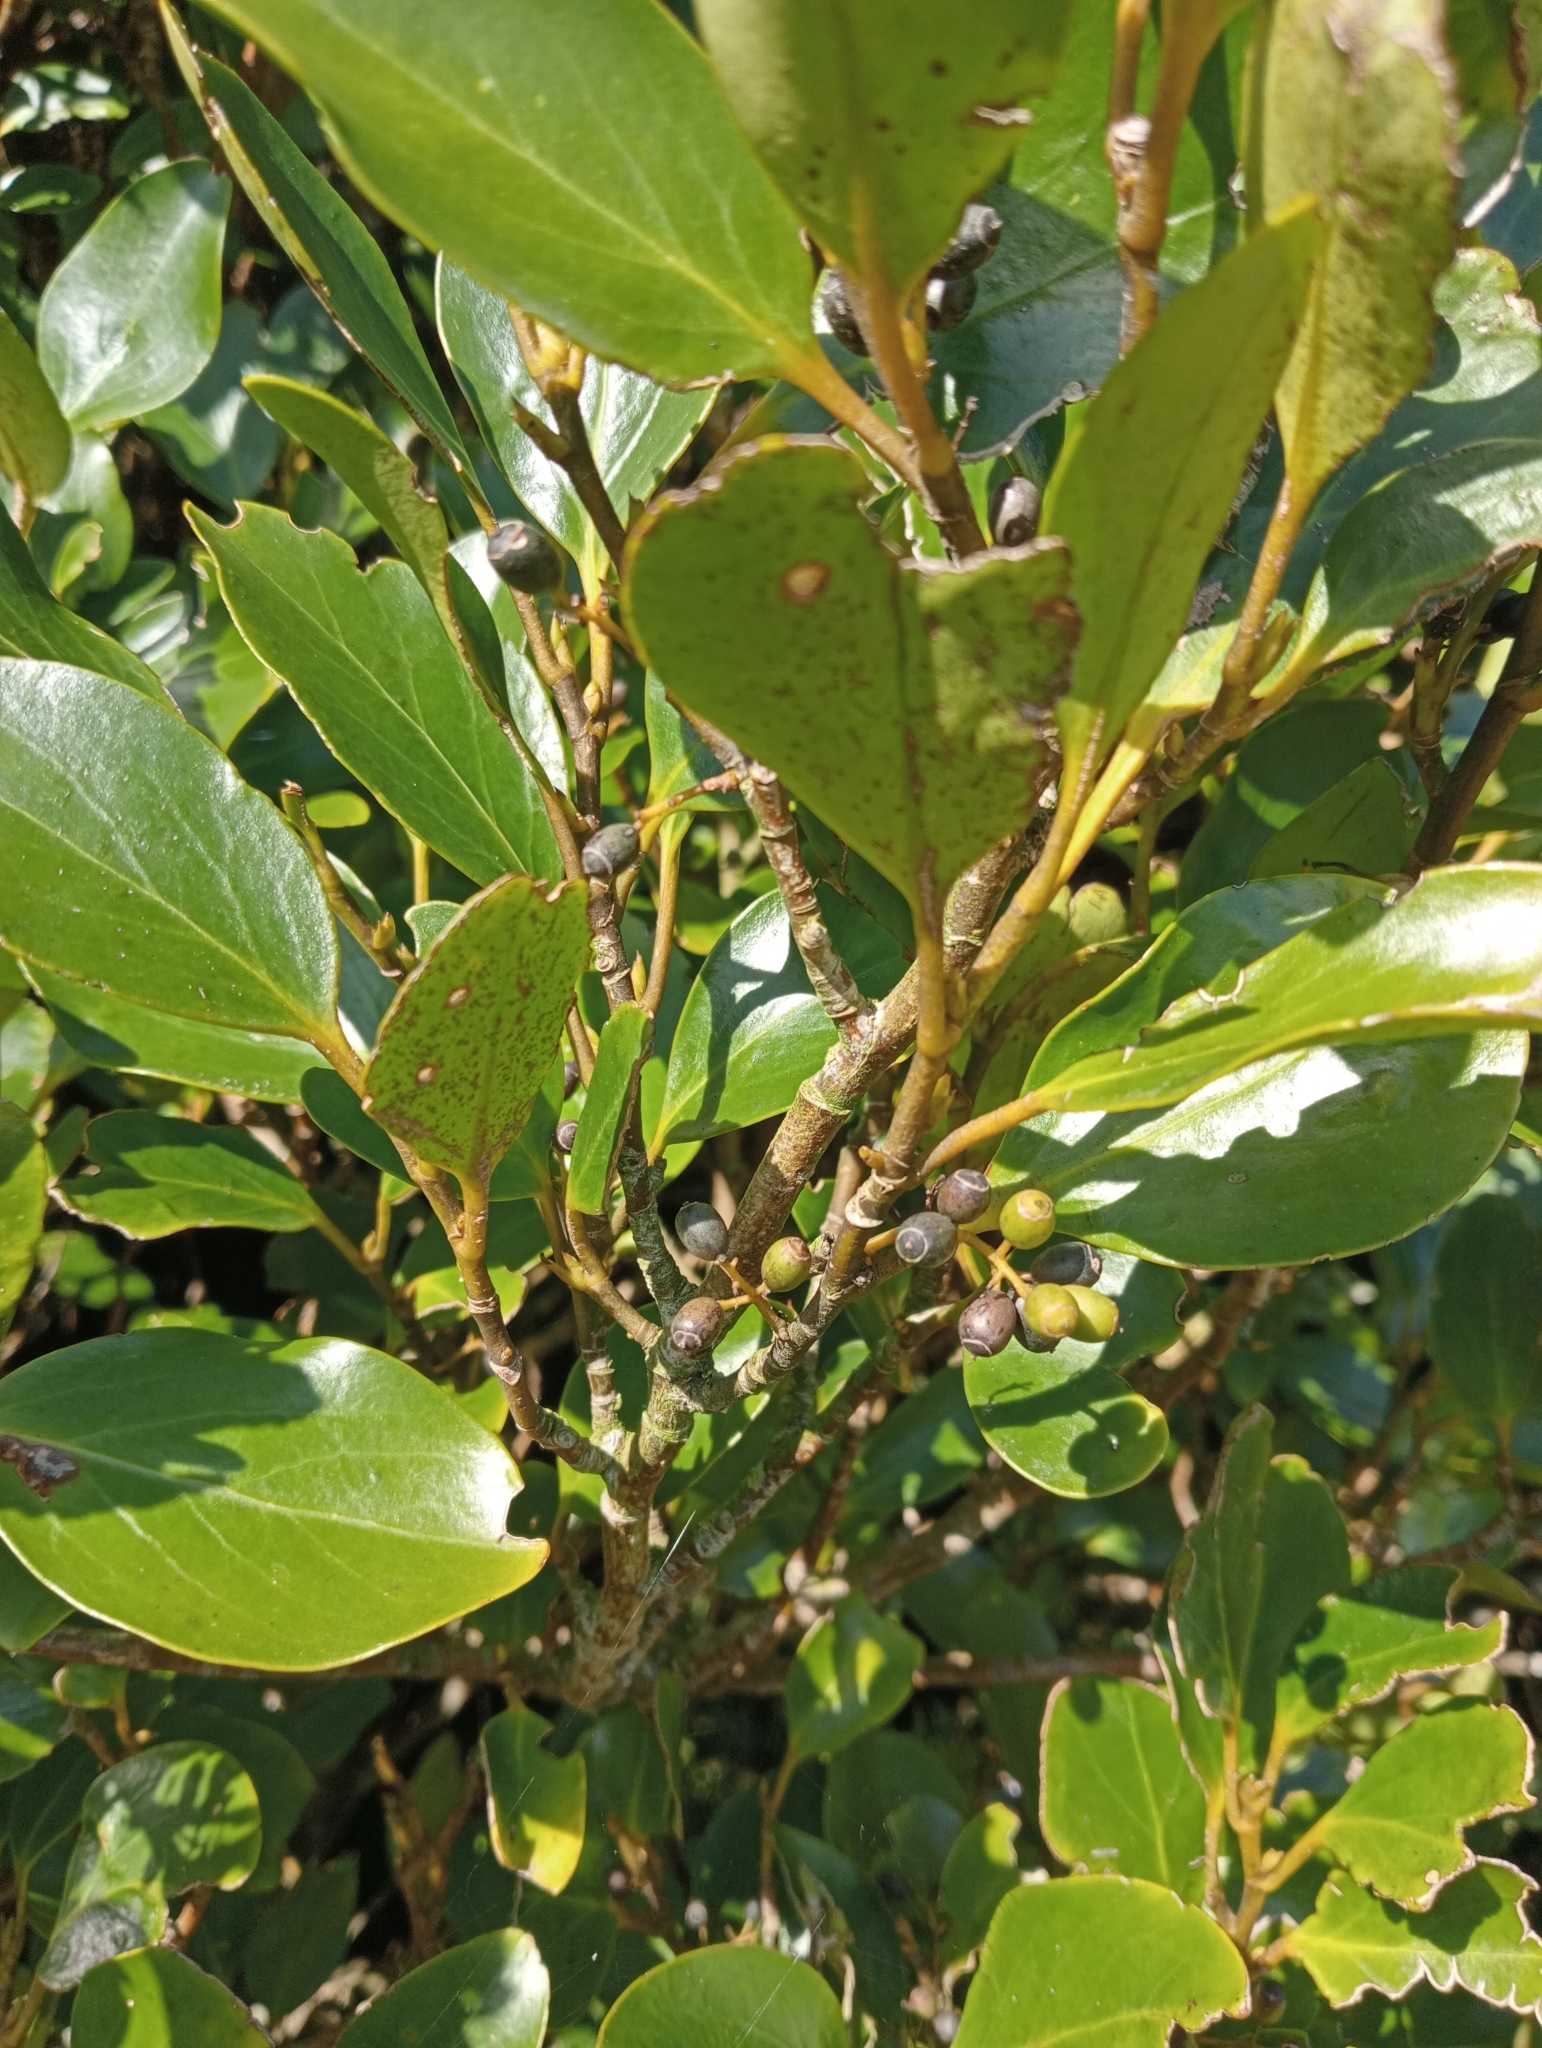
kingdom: Plantae
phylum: Tracheophyta
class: Magnoliopsida
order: Apiales
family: Griseliniaceae
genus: Griselinia
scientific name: Griselinia littoralis
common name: New zealand broadleaf
